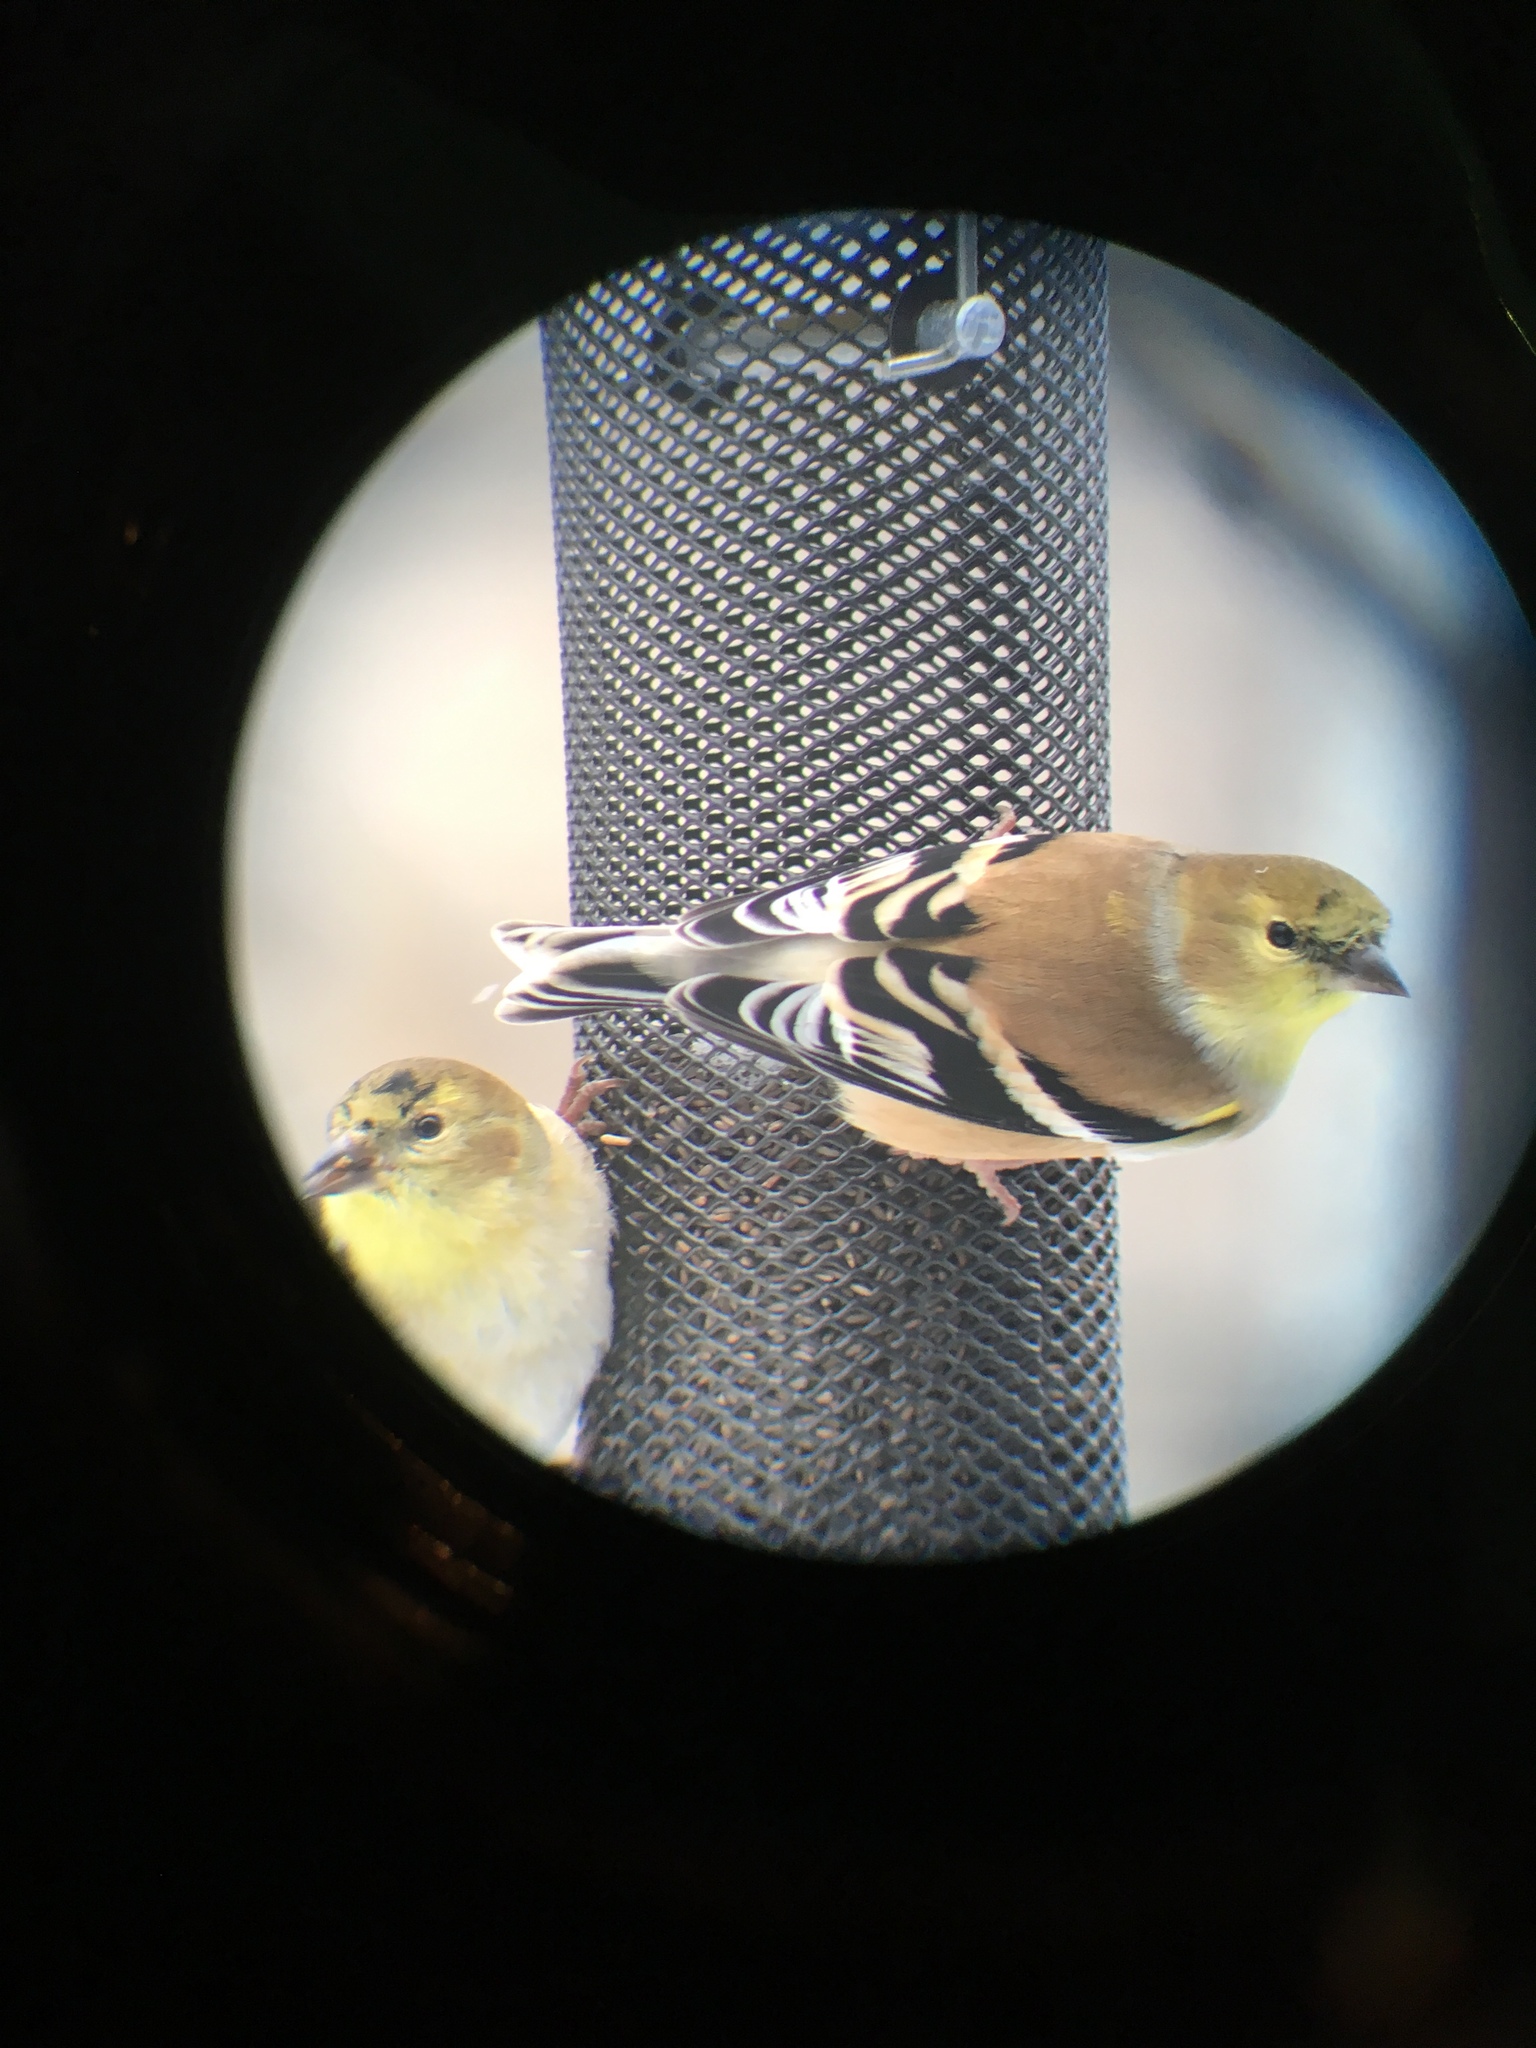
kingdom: Animalia
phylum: Chordata
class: Aves
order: Passeriformes
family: Fringillidae
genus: Spinus
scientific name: Spinus tristis
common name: American goldfinch
